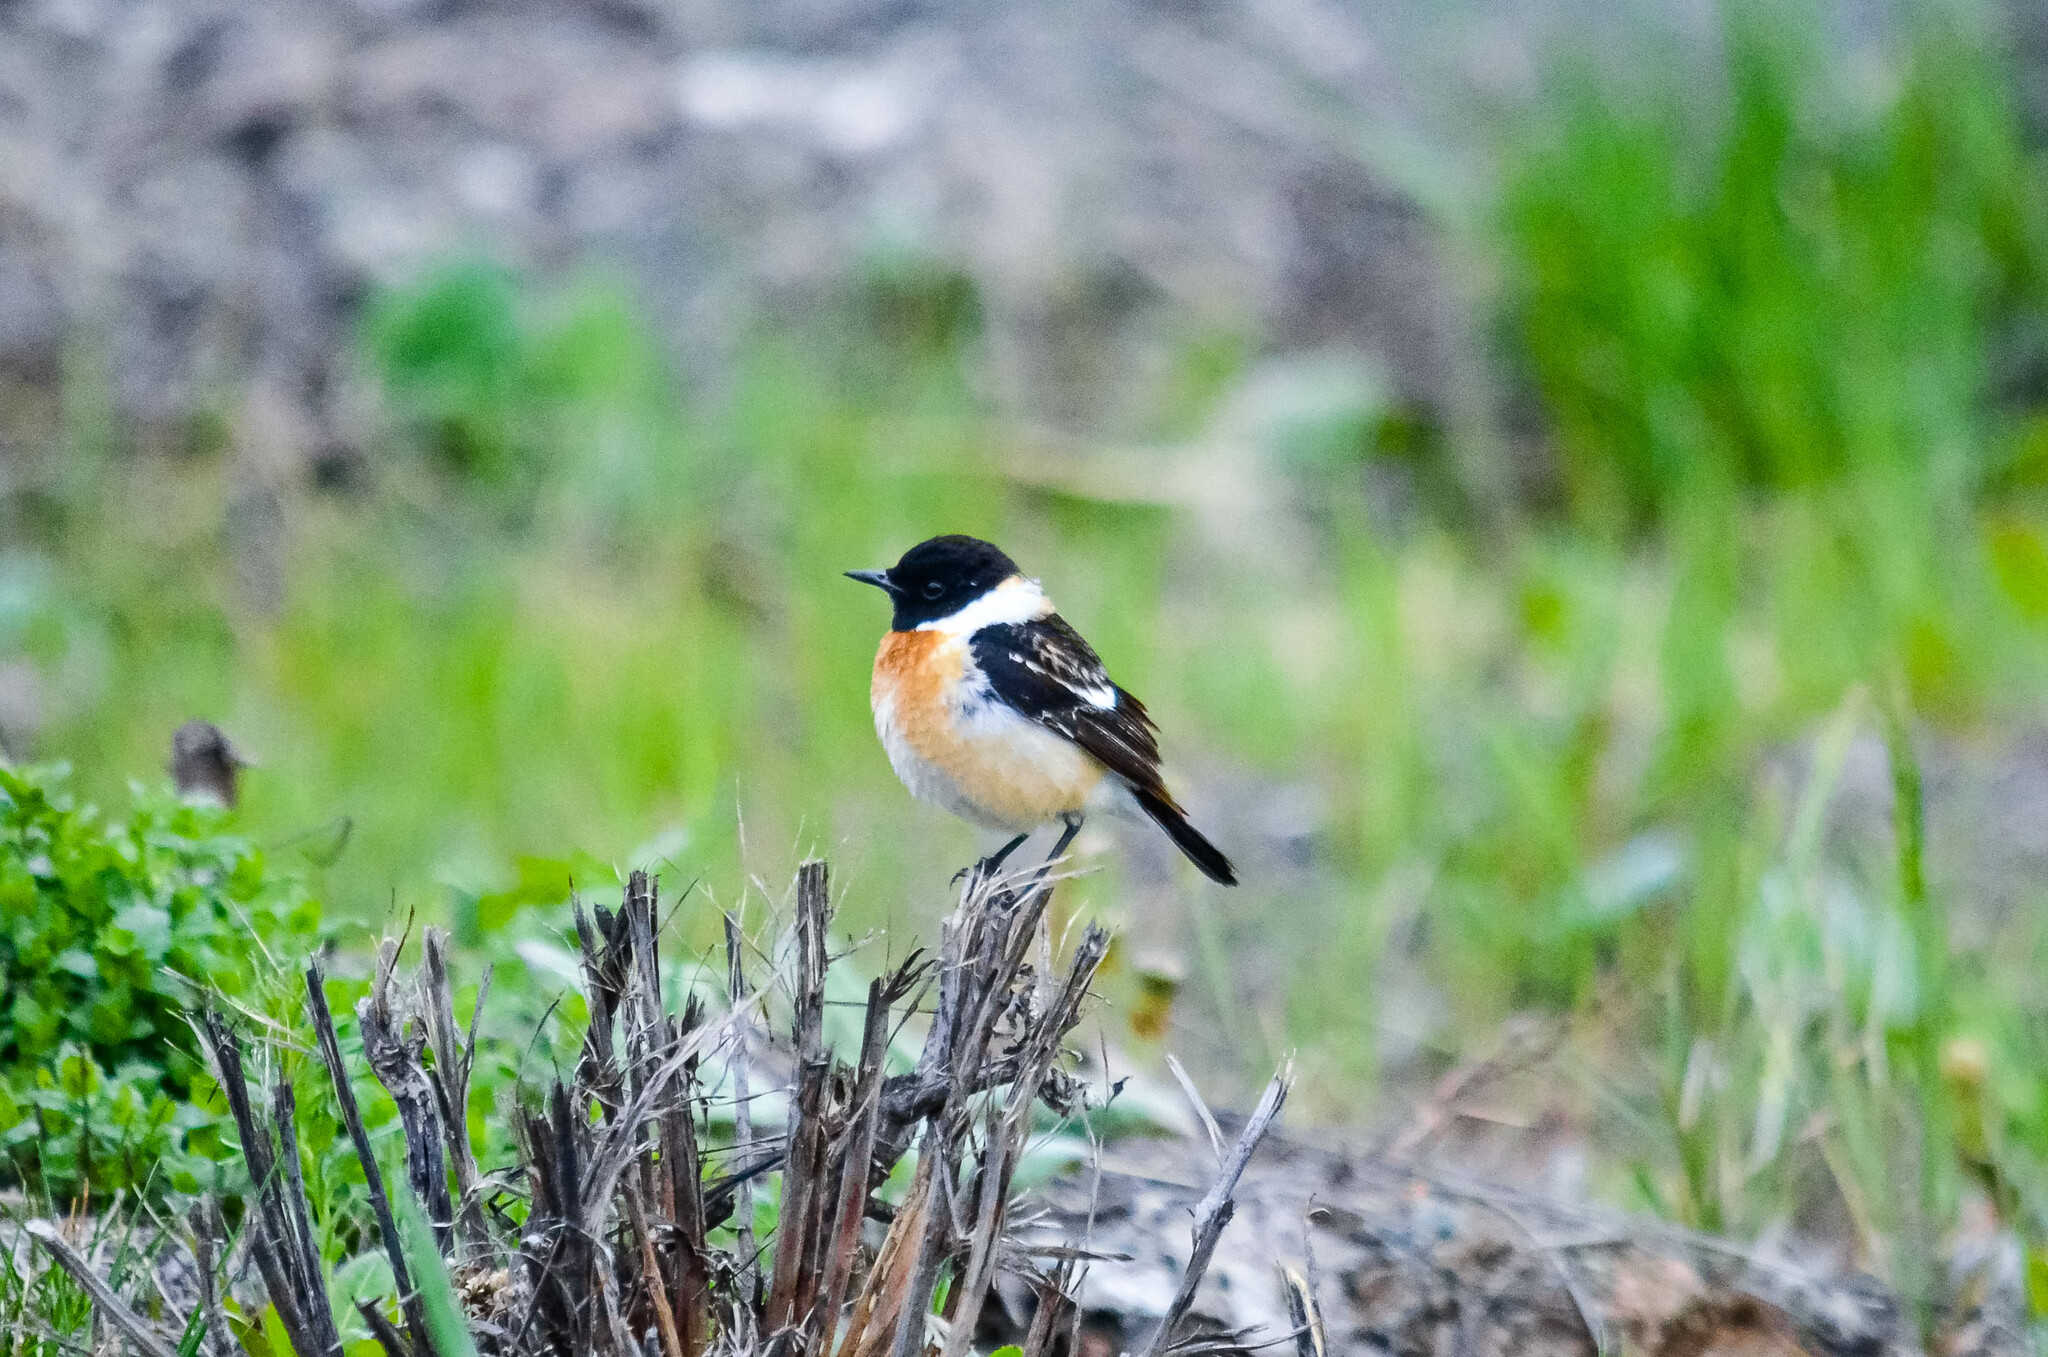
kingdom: Animalia
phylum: Chordata
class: Aves
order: Passeriformes
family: Muscicapidae
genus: Saxicola
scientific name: Saxicola maurus
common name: Siberian stonechat
